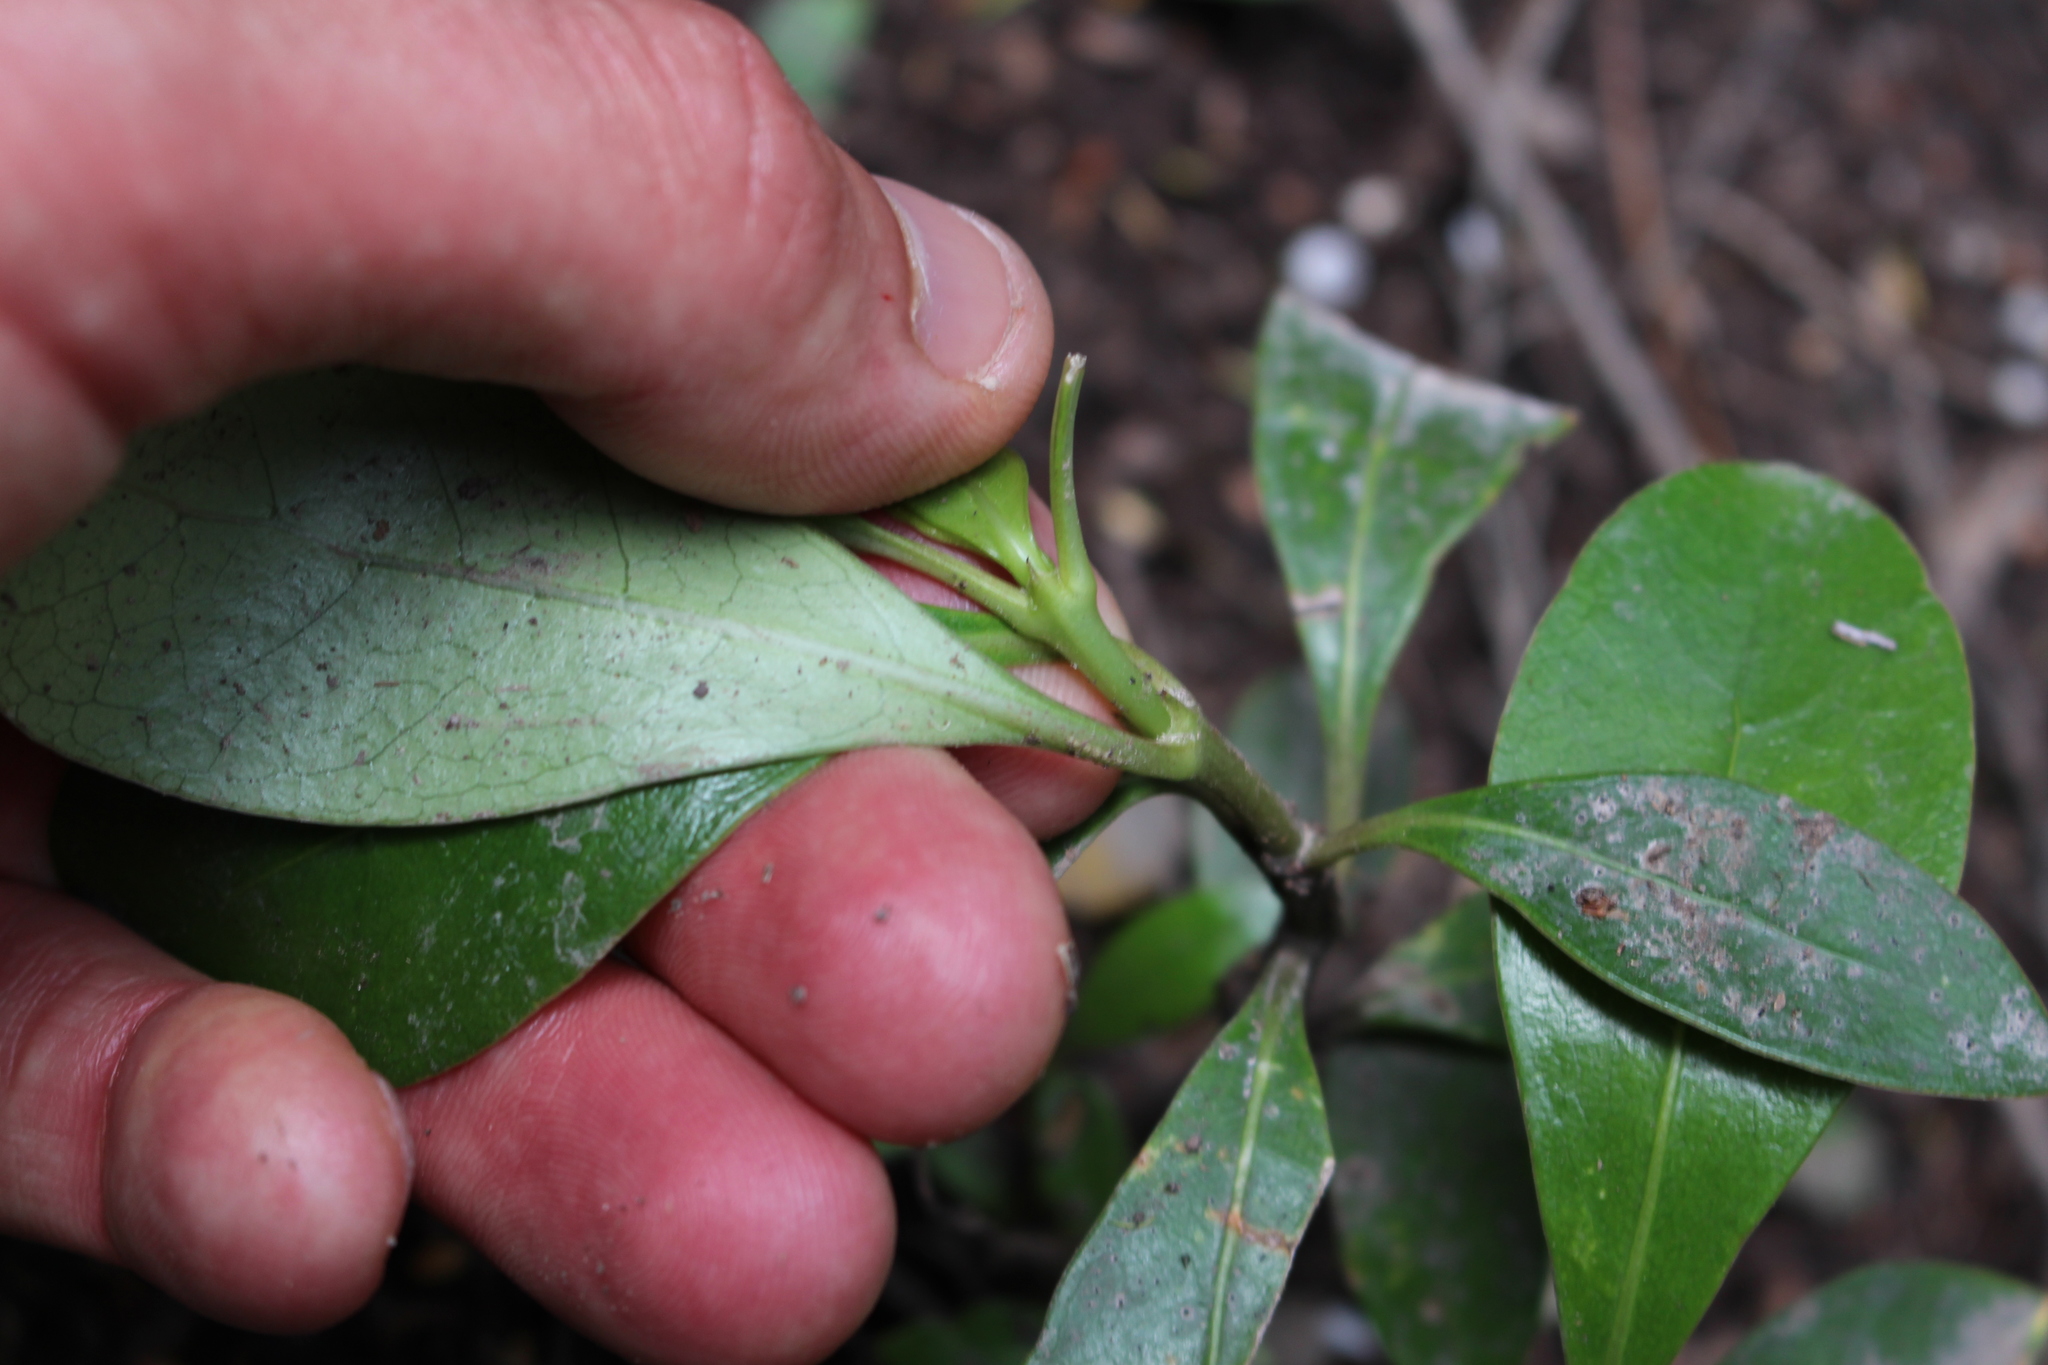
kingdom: Plantae
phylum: Tracheophyta
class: Magnoliopsida
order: Gentianales
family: Rubiaceae
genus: Coprosma
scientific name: Coprosma lucida
